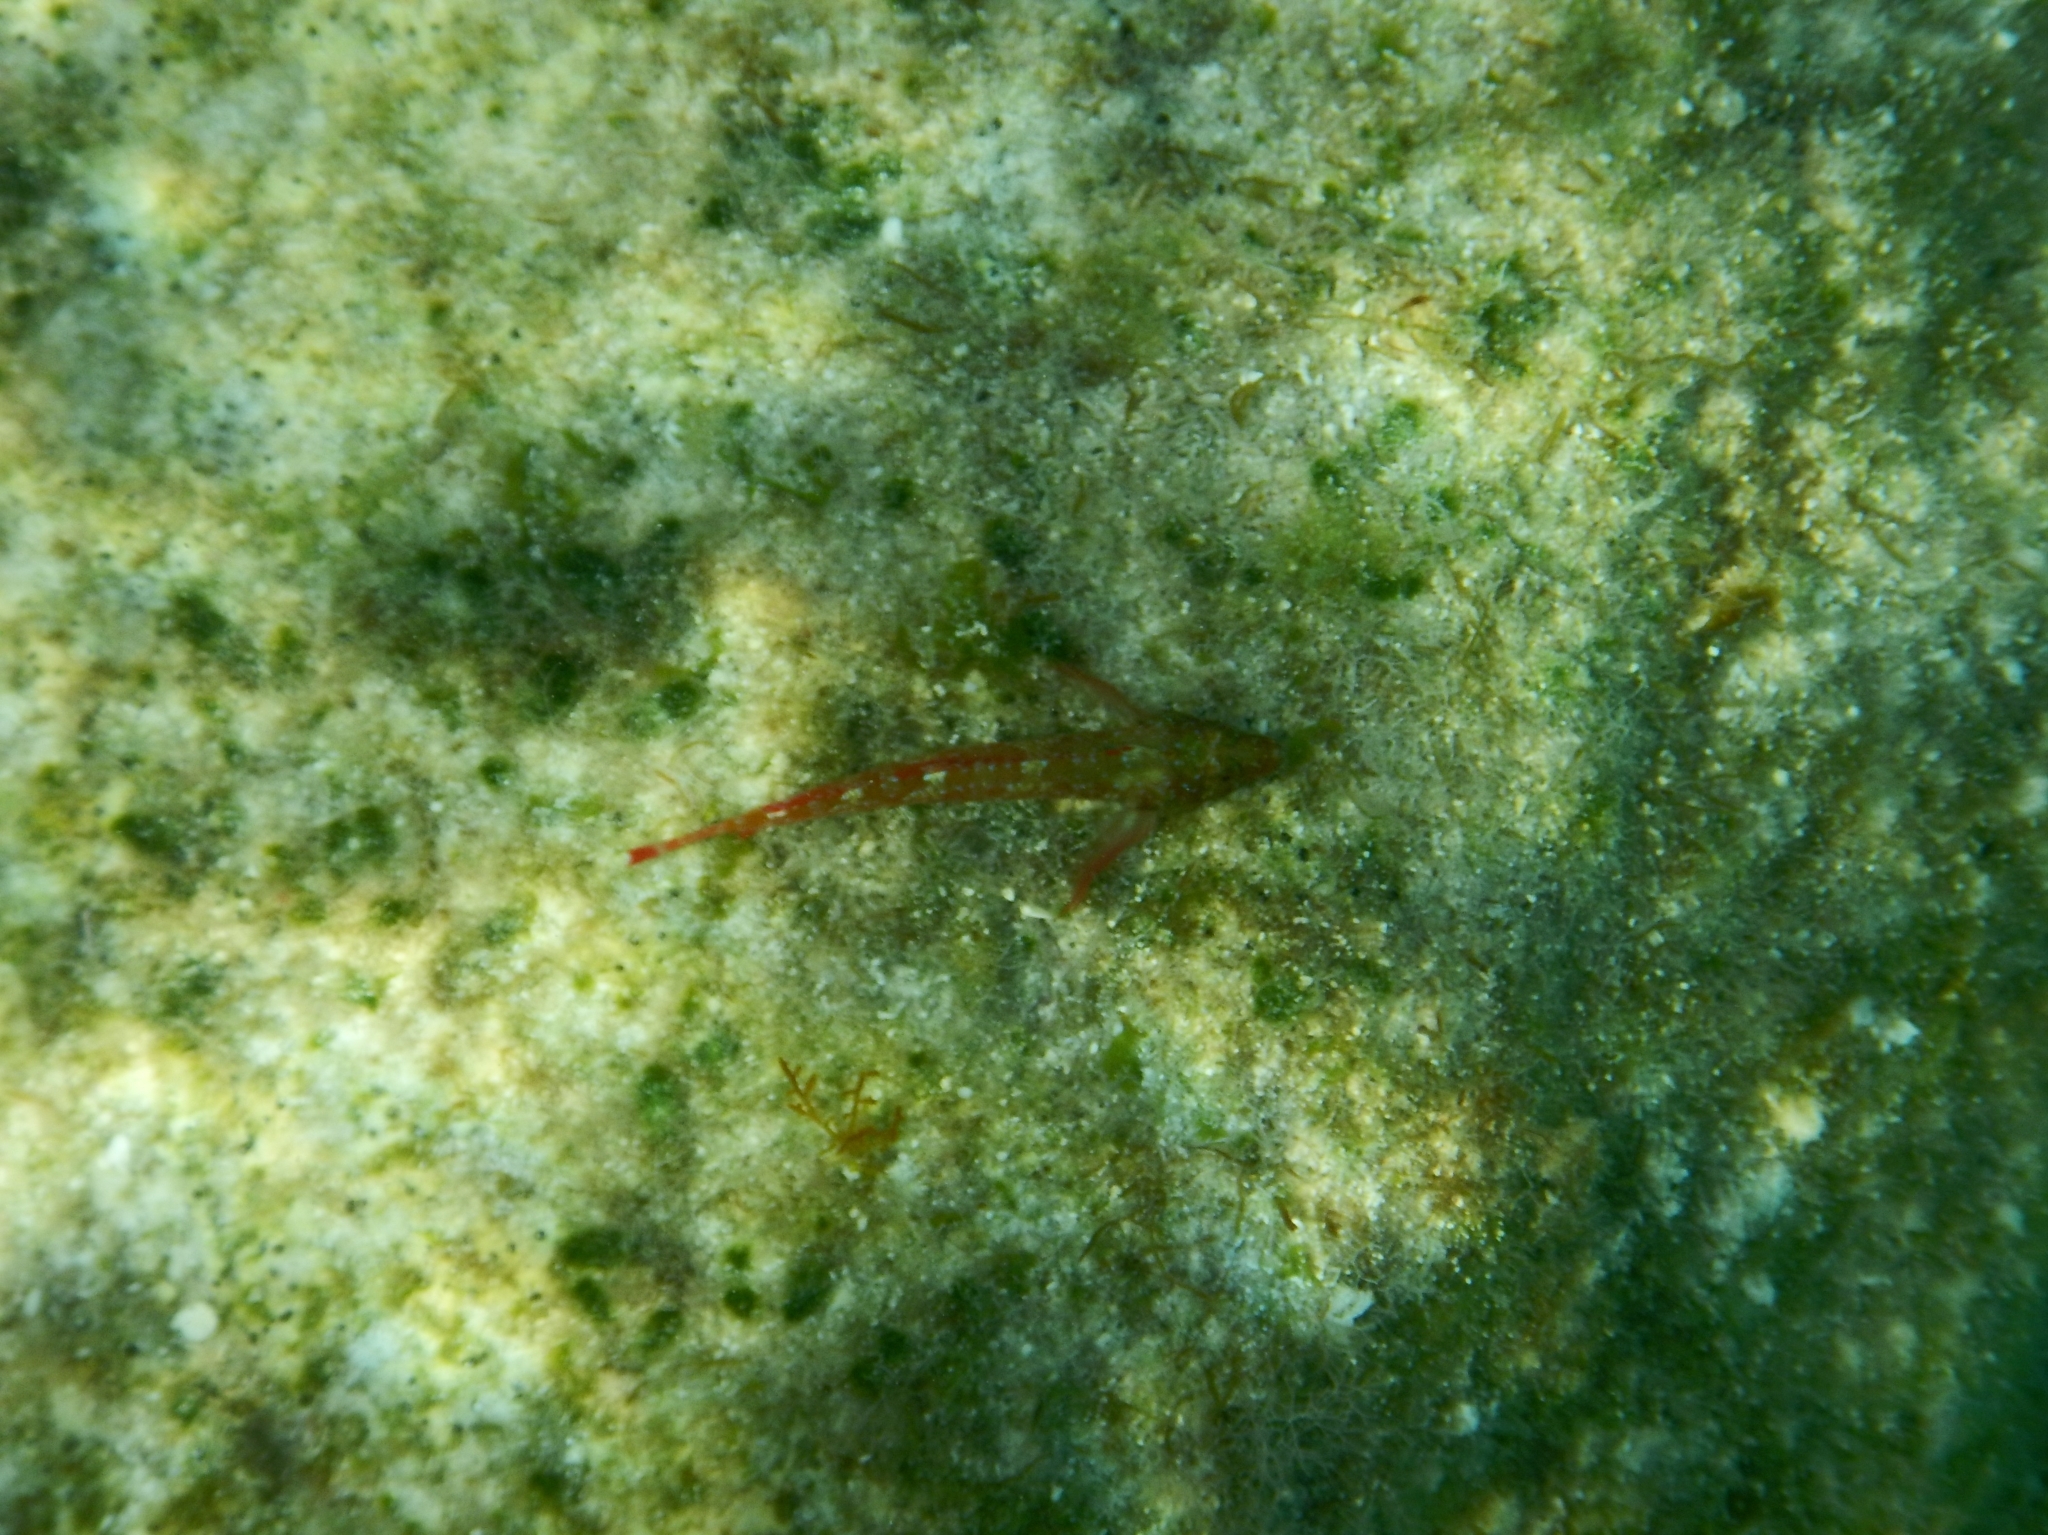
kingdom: Animalia
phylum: Chordata
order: Perciformes
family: Tripterygiidae
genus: Tripterygion
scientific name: Tripterygion tripteronotum
